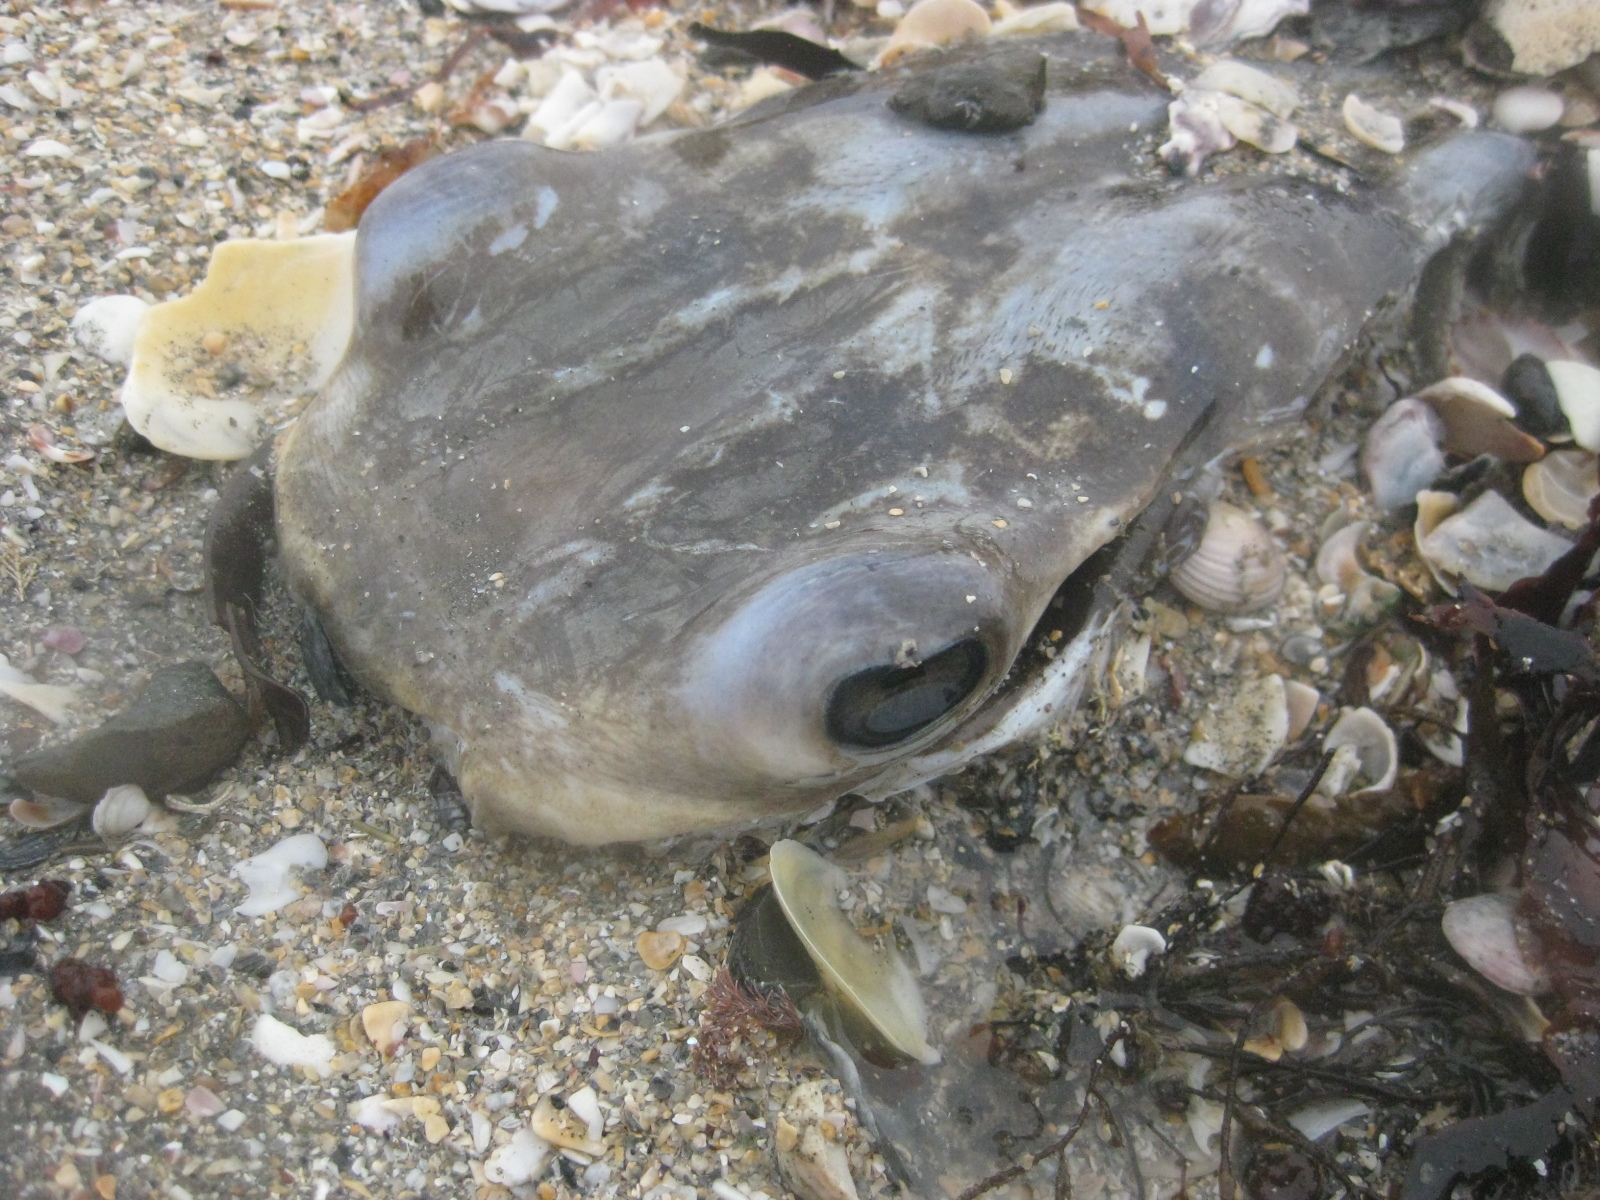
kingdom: Animalia
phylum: Chordata
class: Elasmobranchii
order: Myliobatiformes
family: Myliobatidae
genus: Myliobatis
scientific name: Myliobatis tenuicaudatus
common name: Eagle ray
